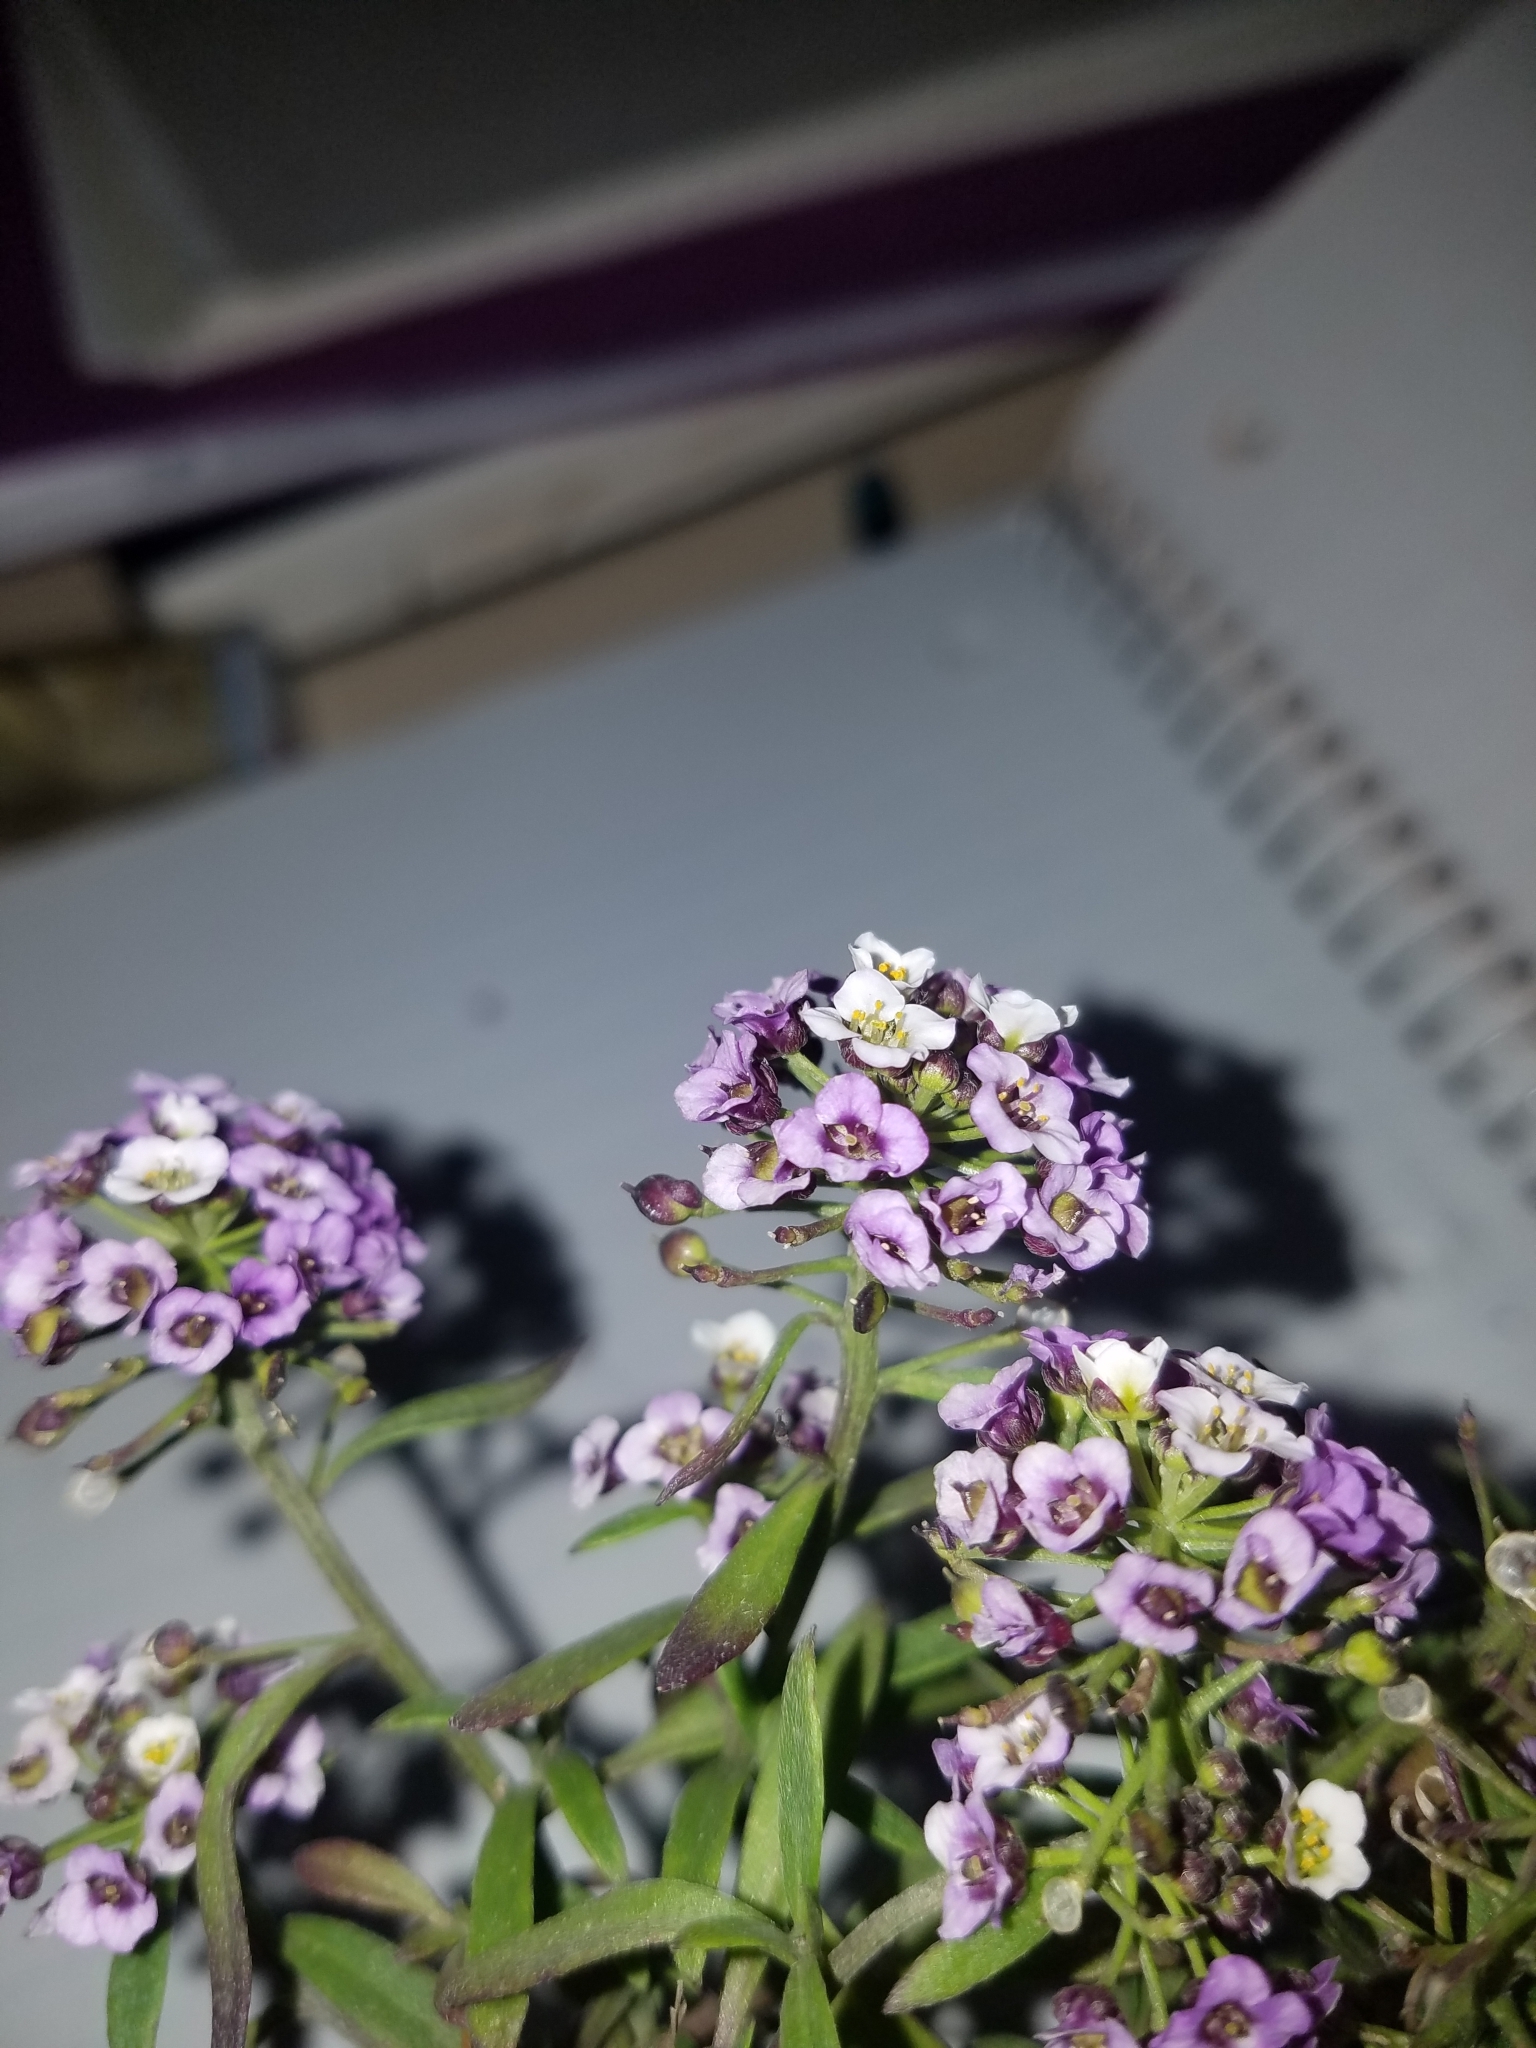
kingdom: Plantae
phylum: Tracheophyta
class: Magnoliopsida
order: Brassicales
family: Brassicaceae
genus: Lobularia
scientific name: Lobularia maritima
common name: Sweet alison
